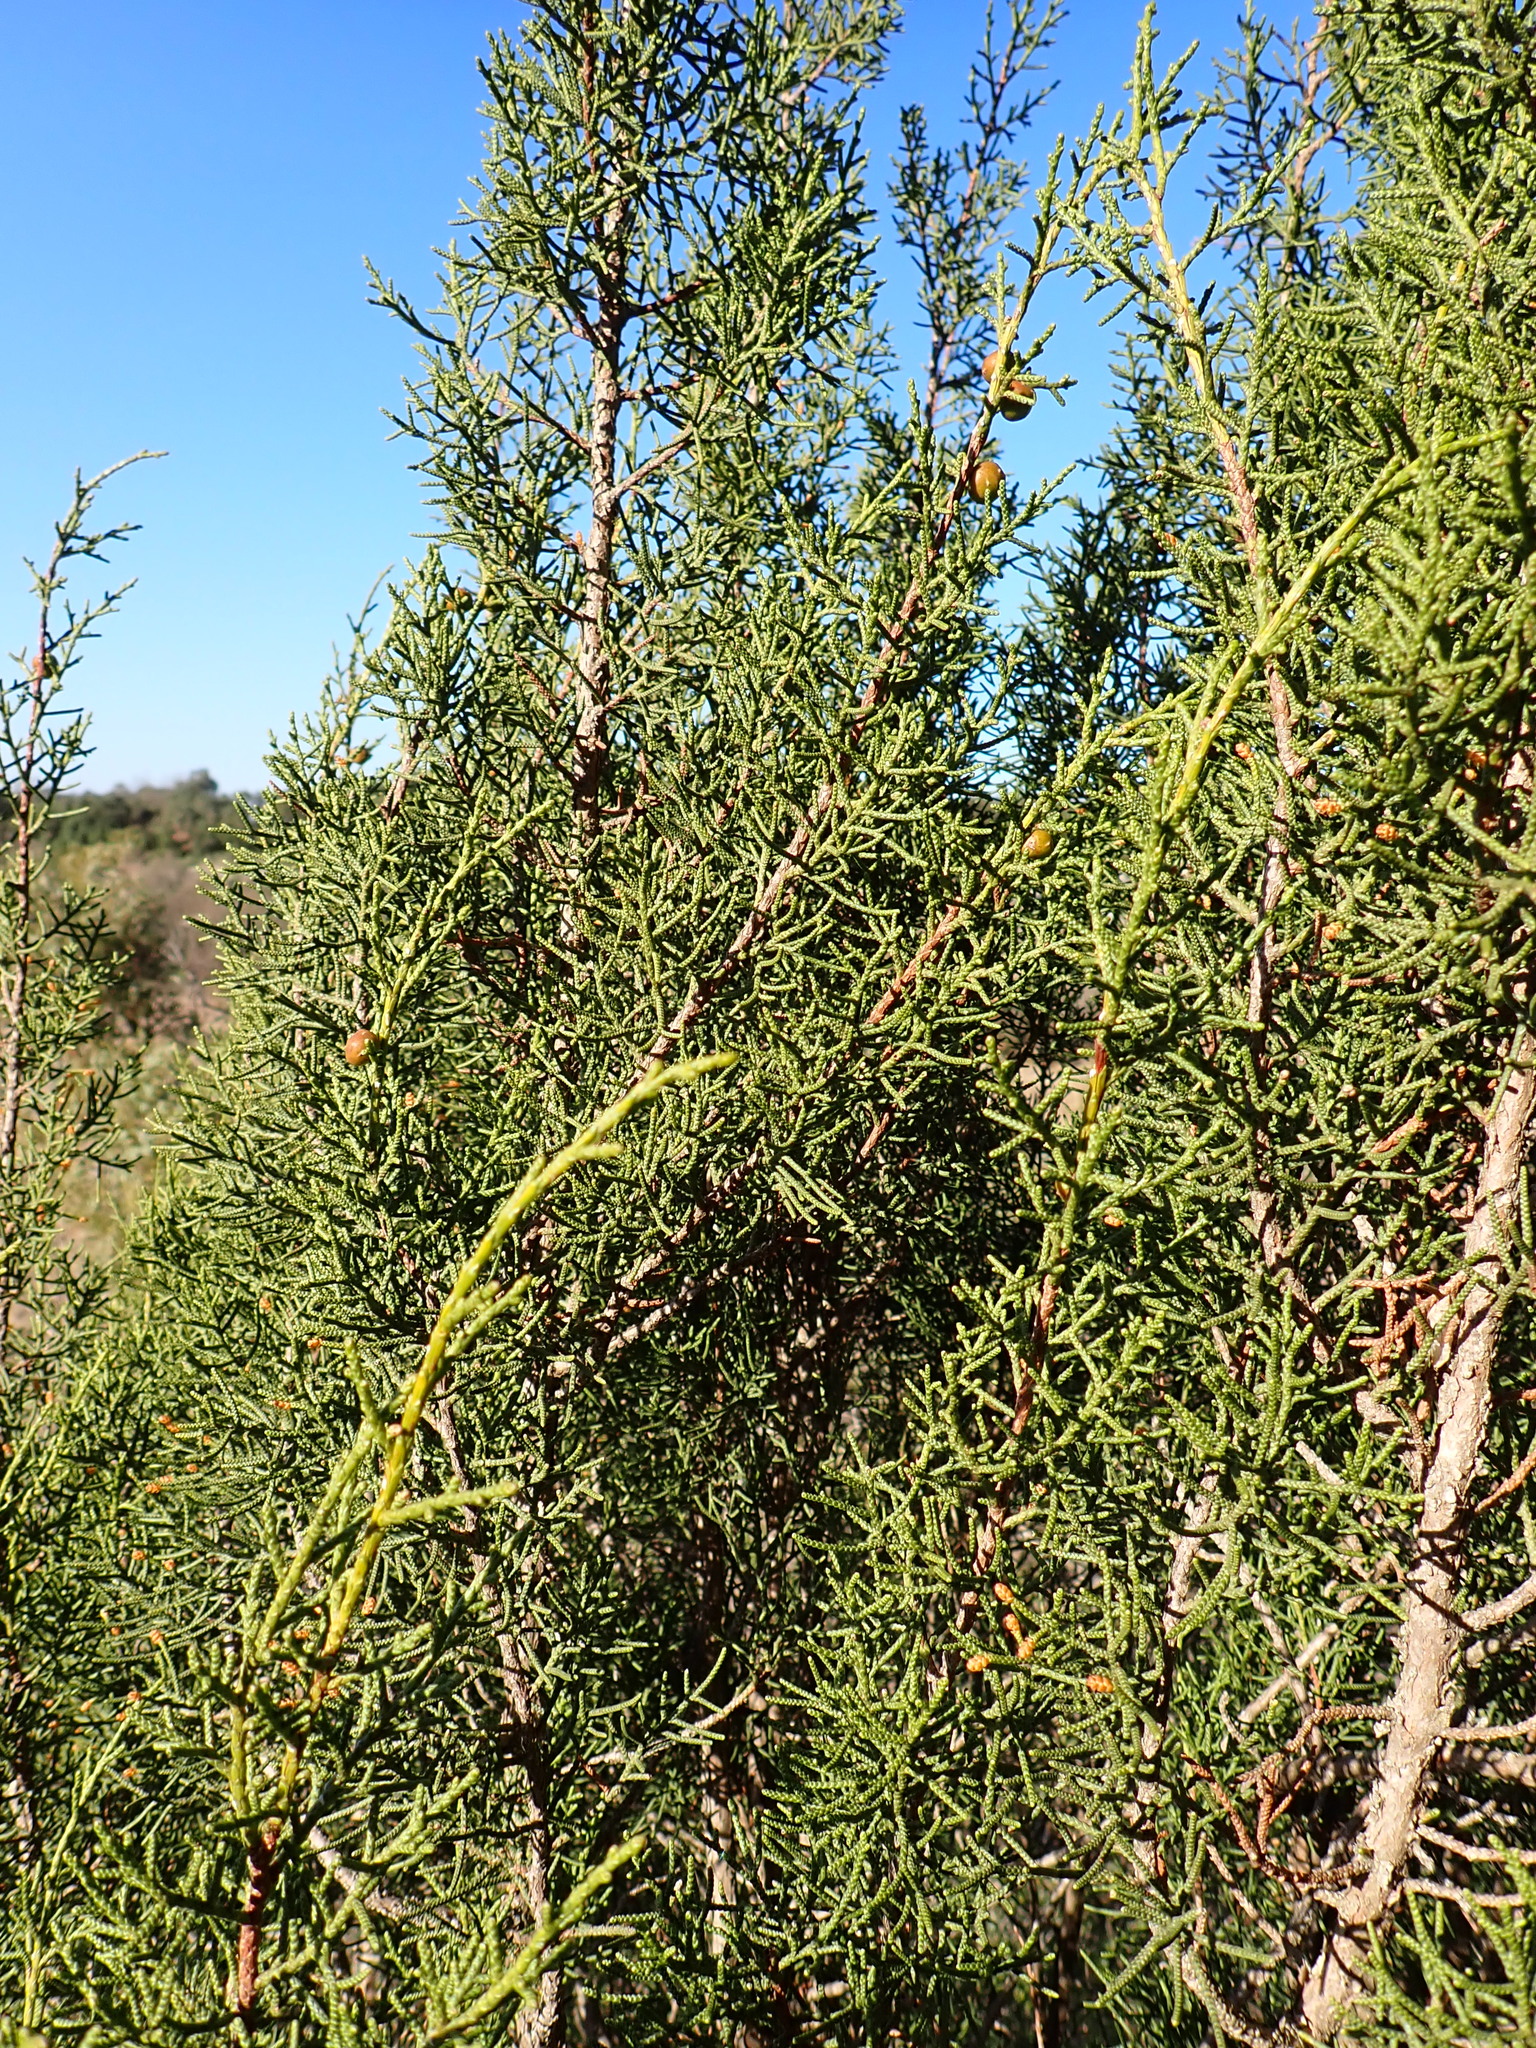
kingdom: Plantae
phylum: Tracheophyta
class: Pinopsida
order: Pinales
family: Cupressaceae
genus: Juniperus
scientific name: Juniperus phoenicea
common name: Phoenician juniper
